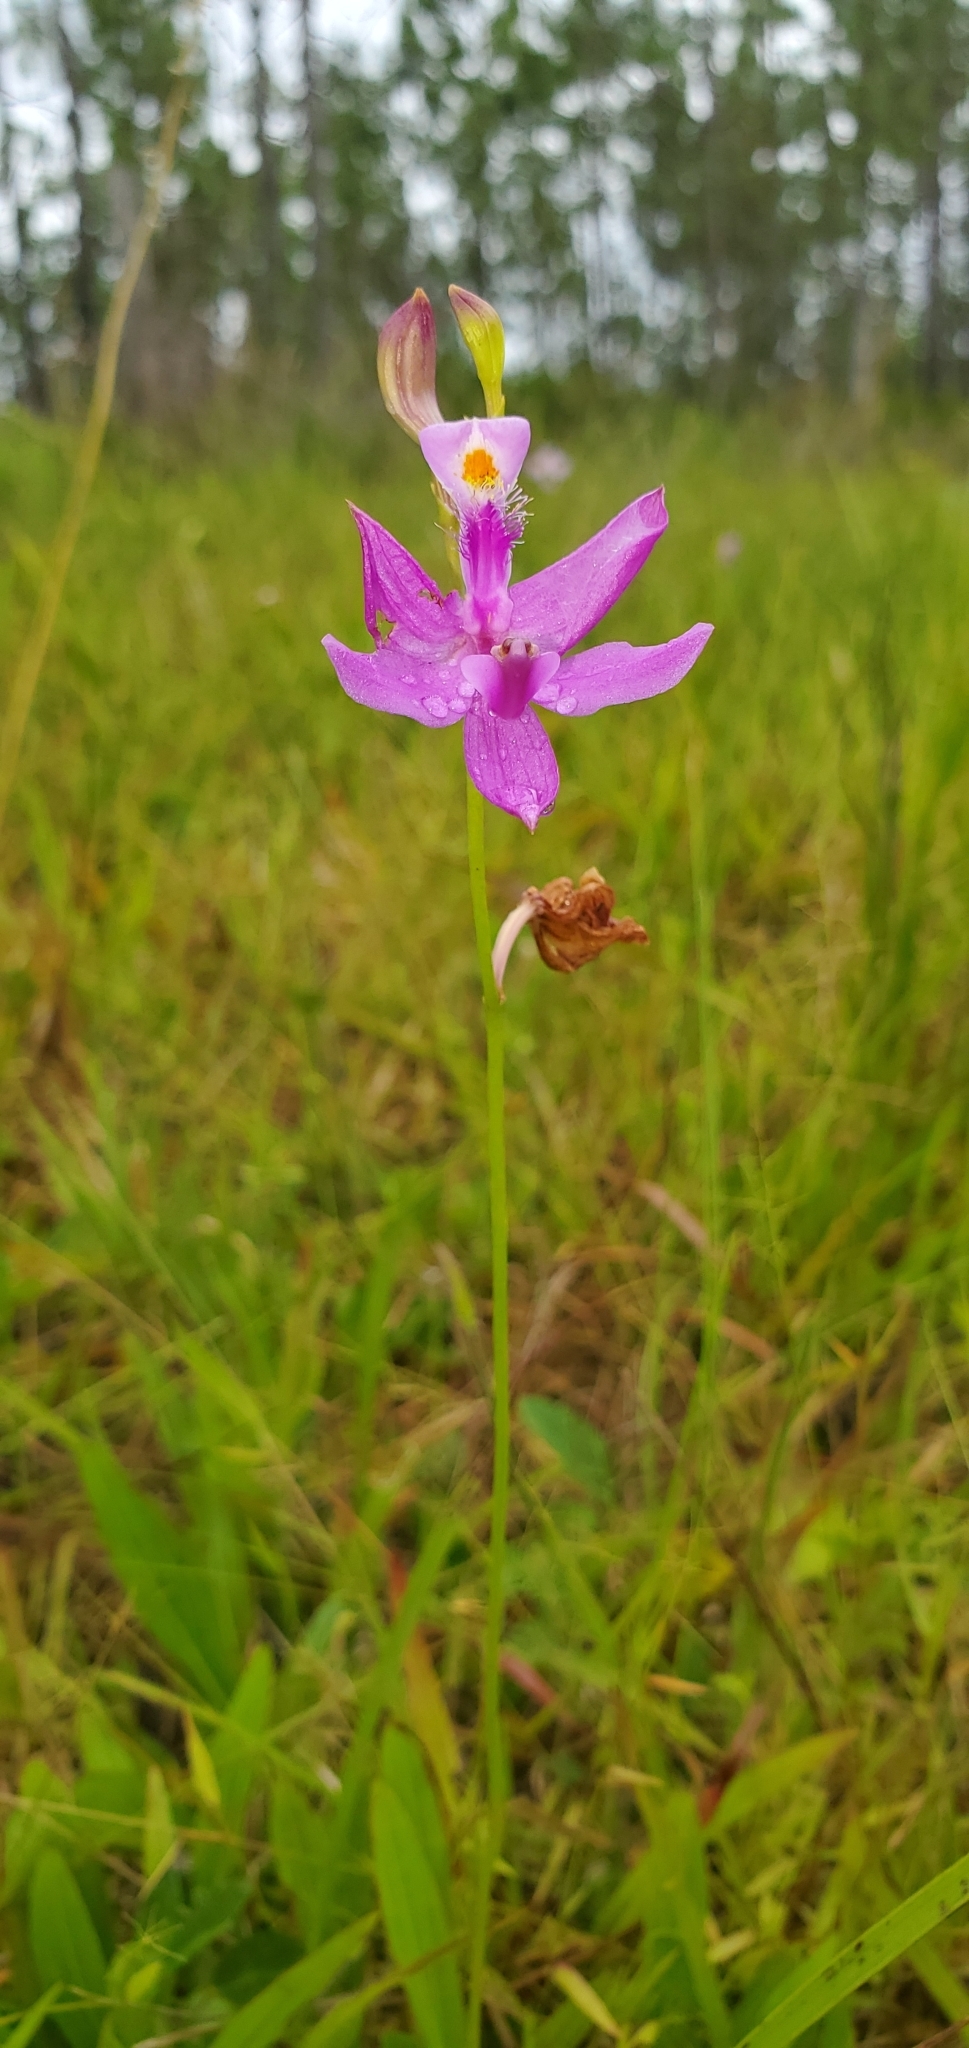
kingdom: Plantae
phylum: Tracheophyta
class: Liliopsida
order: Asparagales
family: Orchidaceae
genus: Calopogon
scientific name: Calopogon tuberosus
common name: Grass-pink
